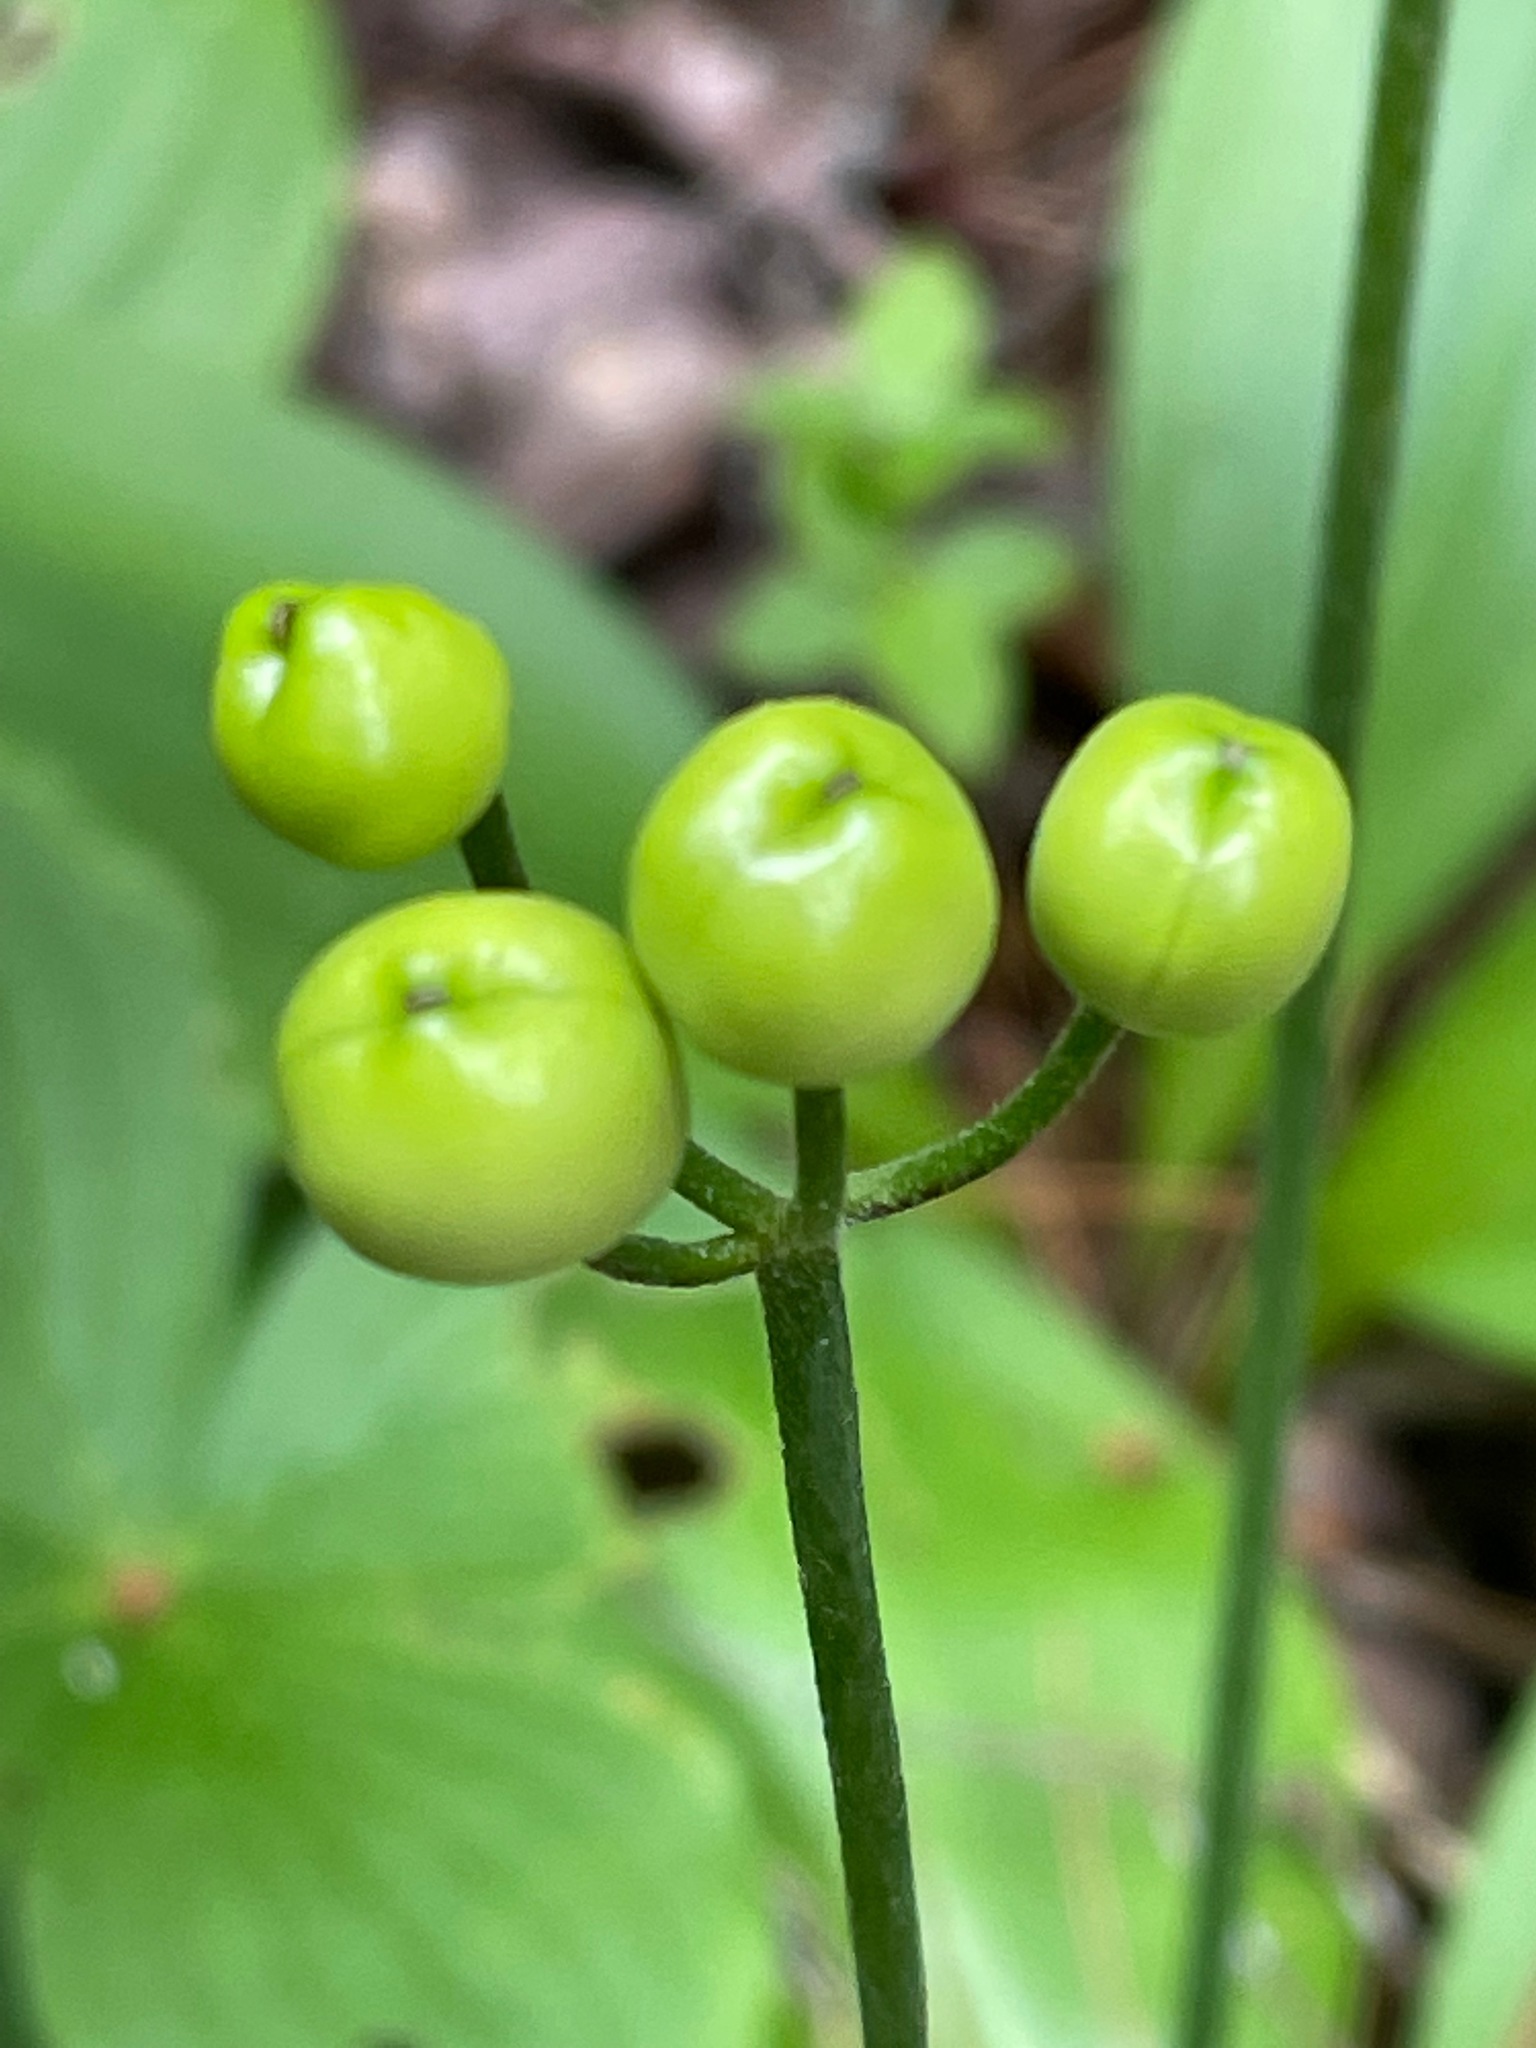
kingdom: Plantae
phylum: Tracheophyta
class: Liliopsida
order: Liliales
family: Liliaceae
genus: Clintonia
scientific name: Clintonia borealis
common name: Yellow clintonia
